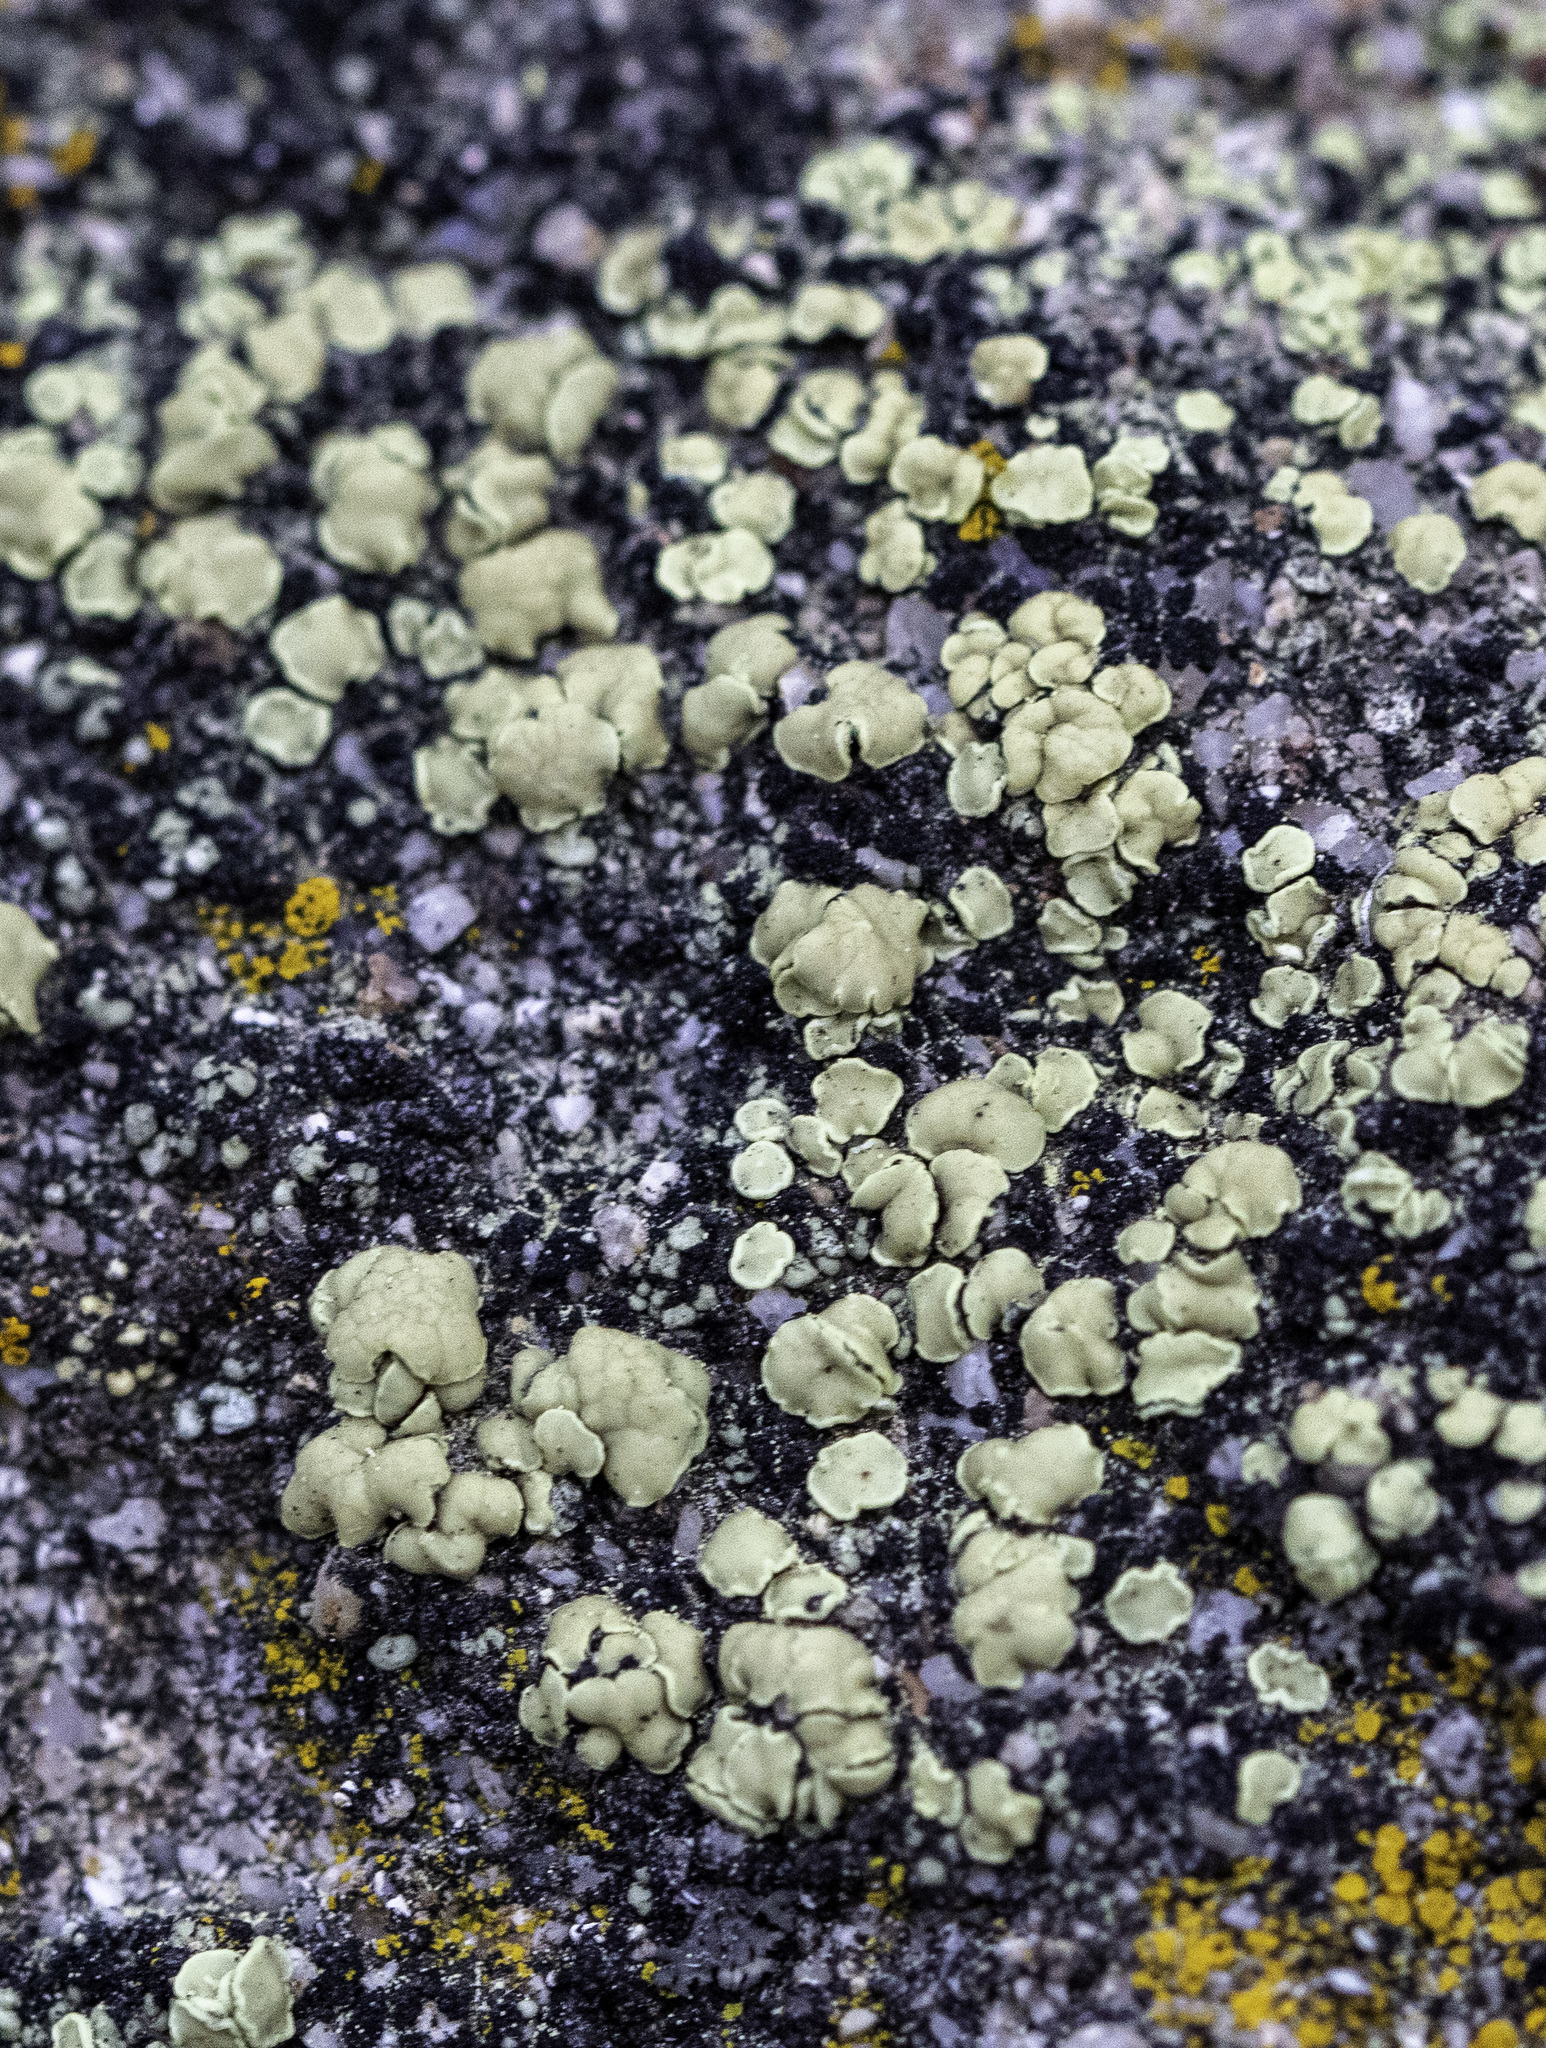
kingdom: Fungi
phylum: Ascomycota
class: Lecanoromycetes
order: Lecanorales
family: Lecanoraceae
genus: Lecanora
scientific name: Lecanora polytropa
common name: Granite-speck rim lichen
